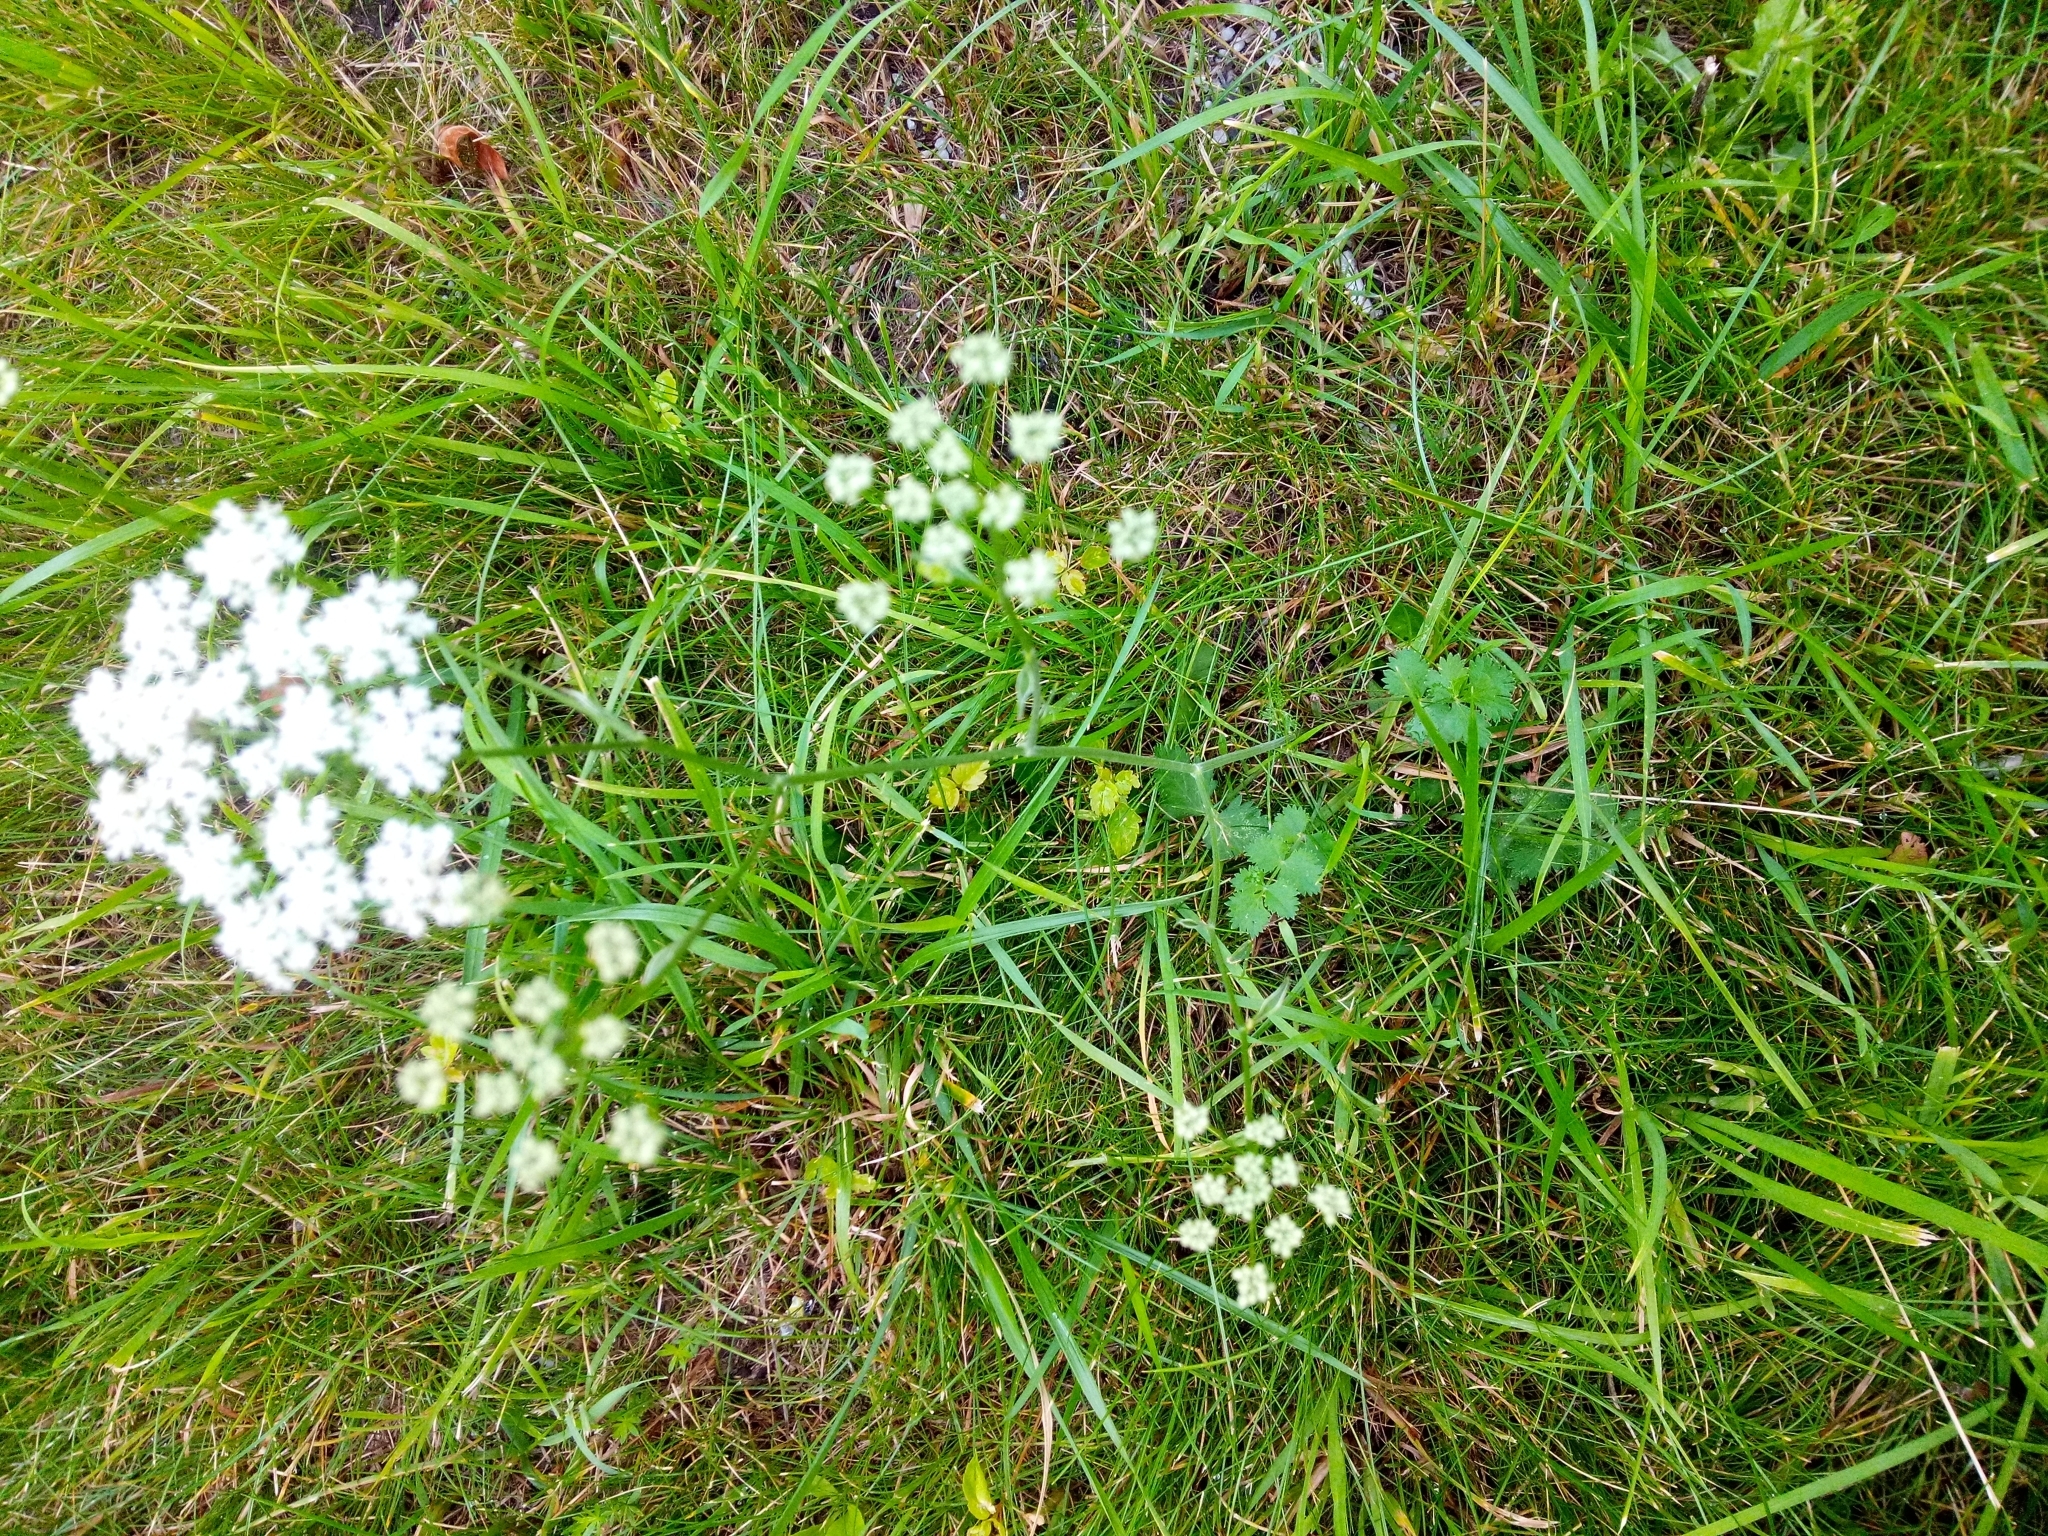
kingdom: Plantae
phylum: Tracheophyta
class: Magnoliopsida
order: Apiales
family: Apiaceae
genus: Pimpinella
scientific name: Pimpinella saxifraga
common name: Burnet-saxifrage
